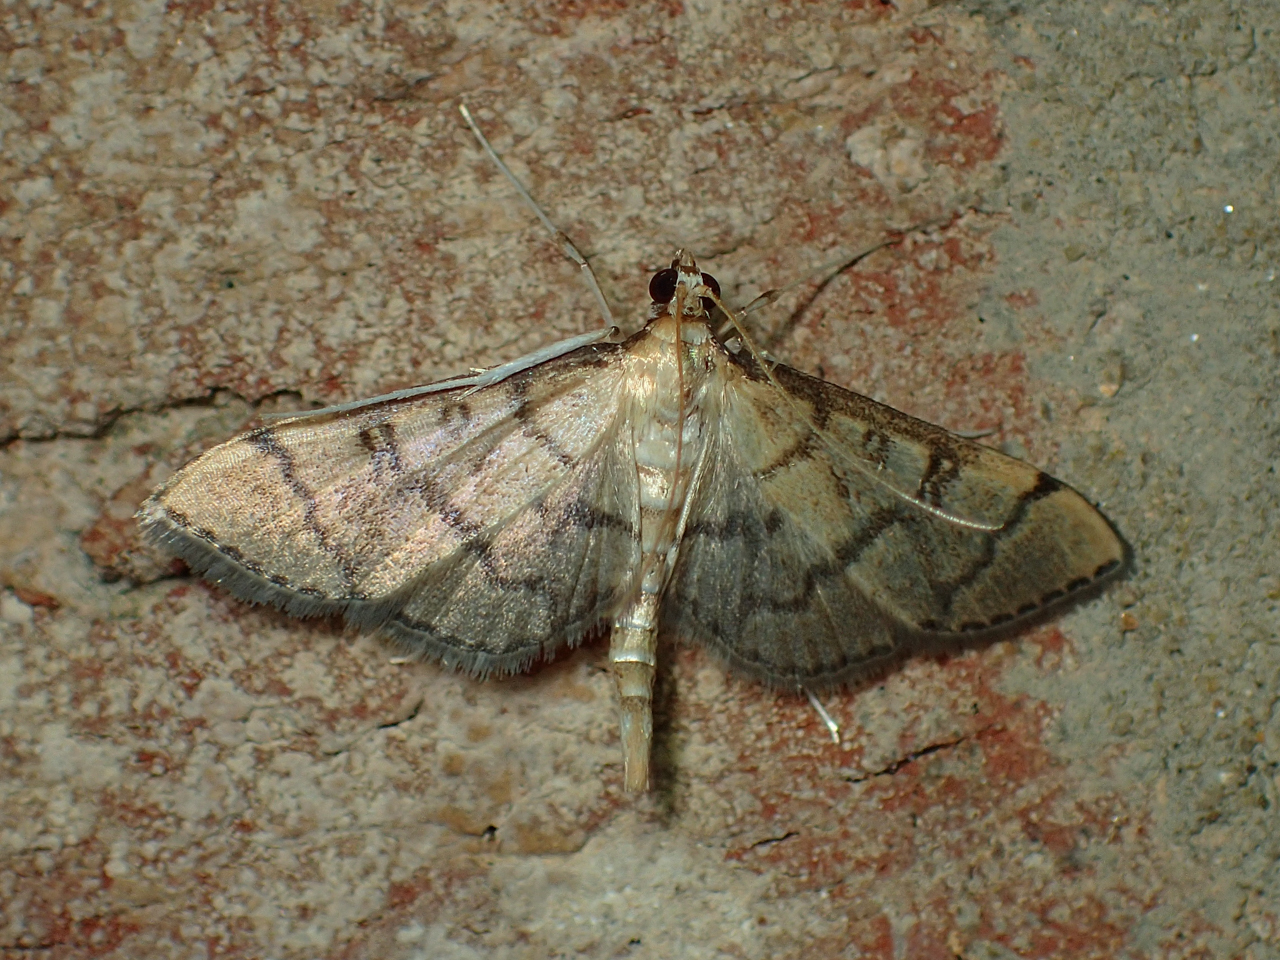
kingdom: Animalia
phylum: Arthropoda
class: Insecta
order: Lepidoptera
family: Crambidae
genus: Lamprosema
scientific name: Lamprosema Blepharomastix ranalis
